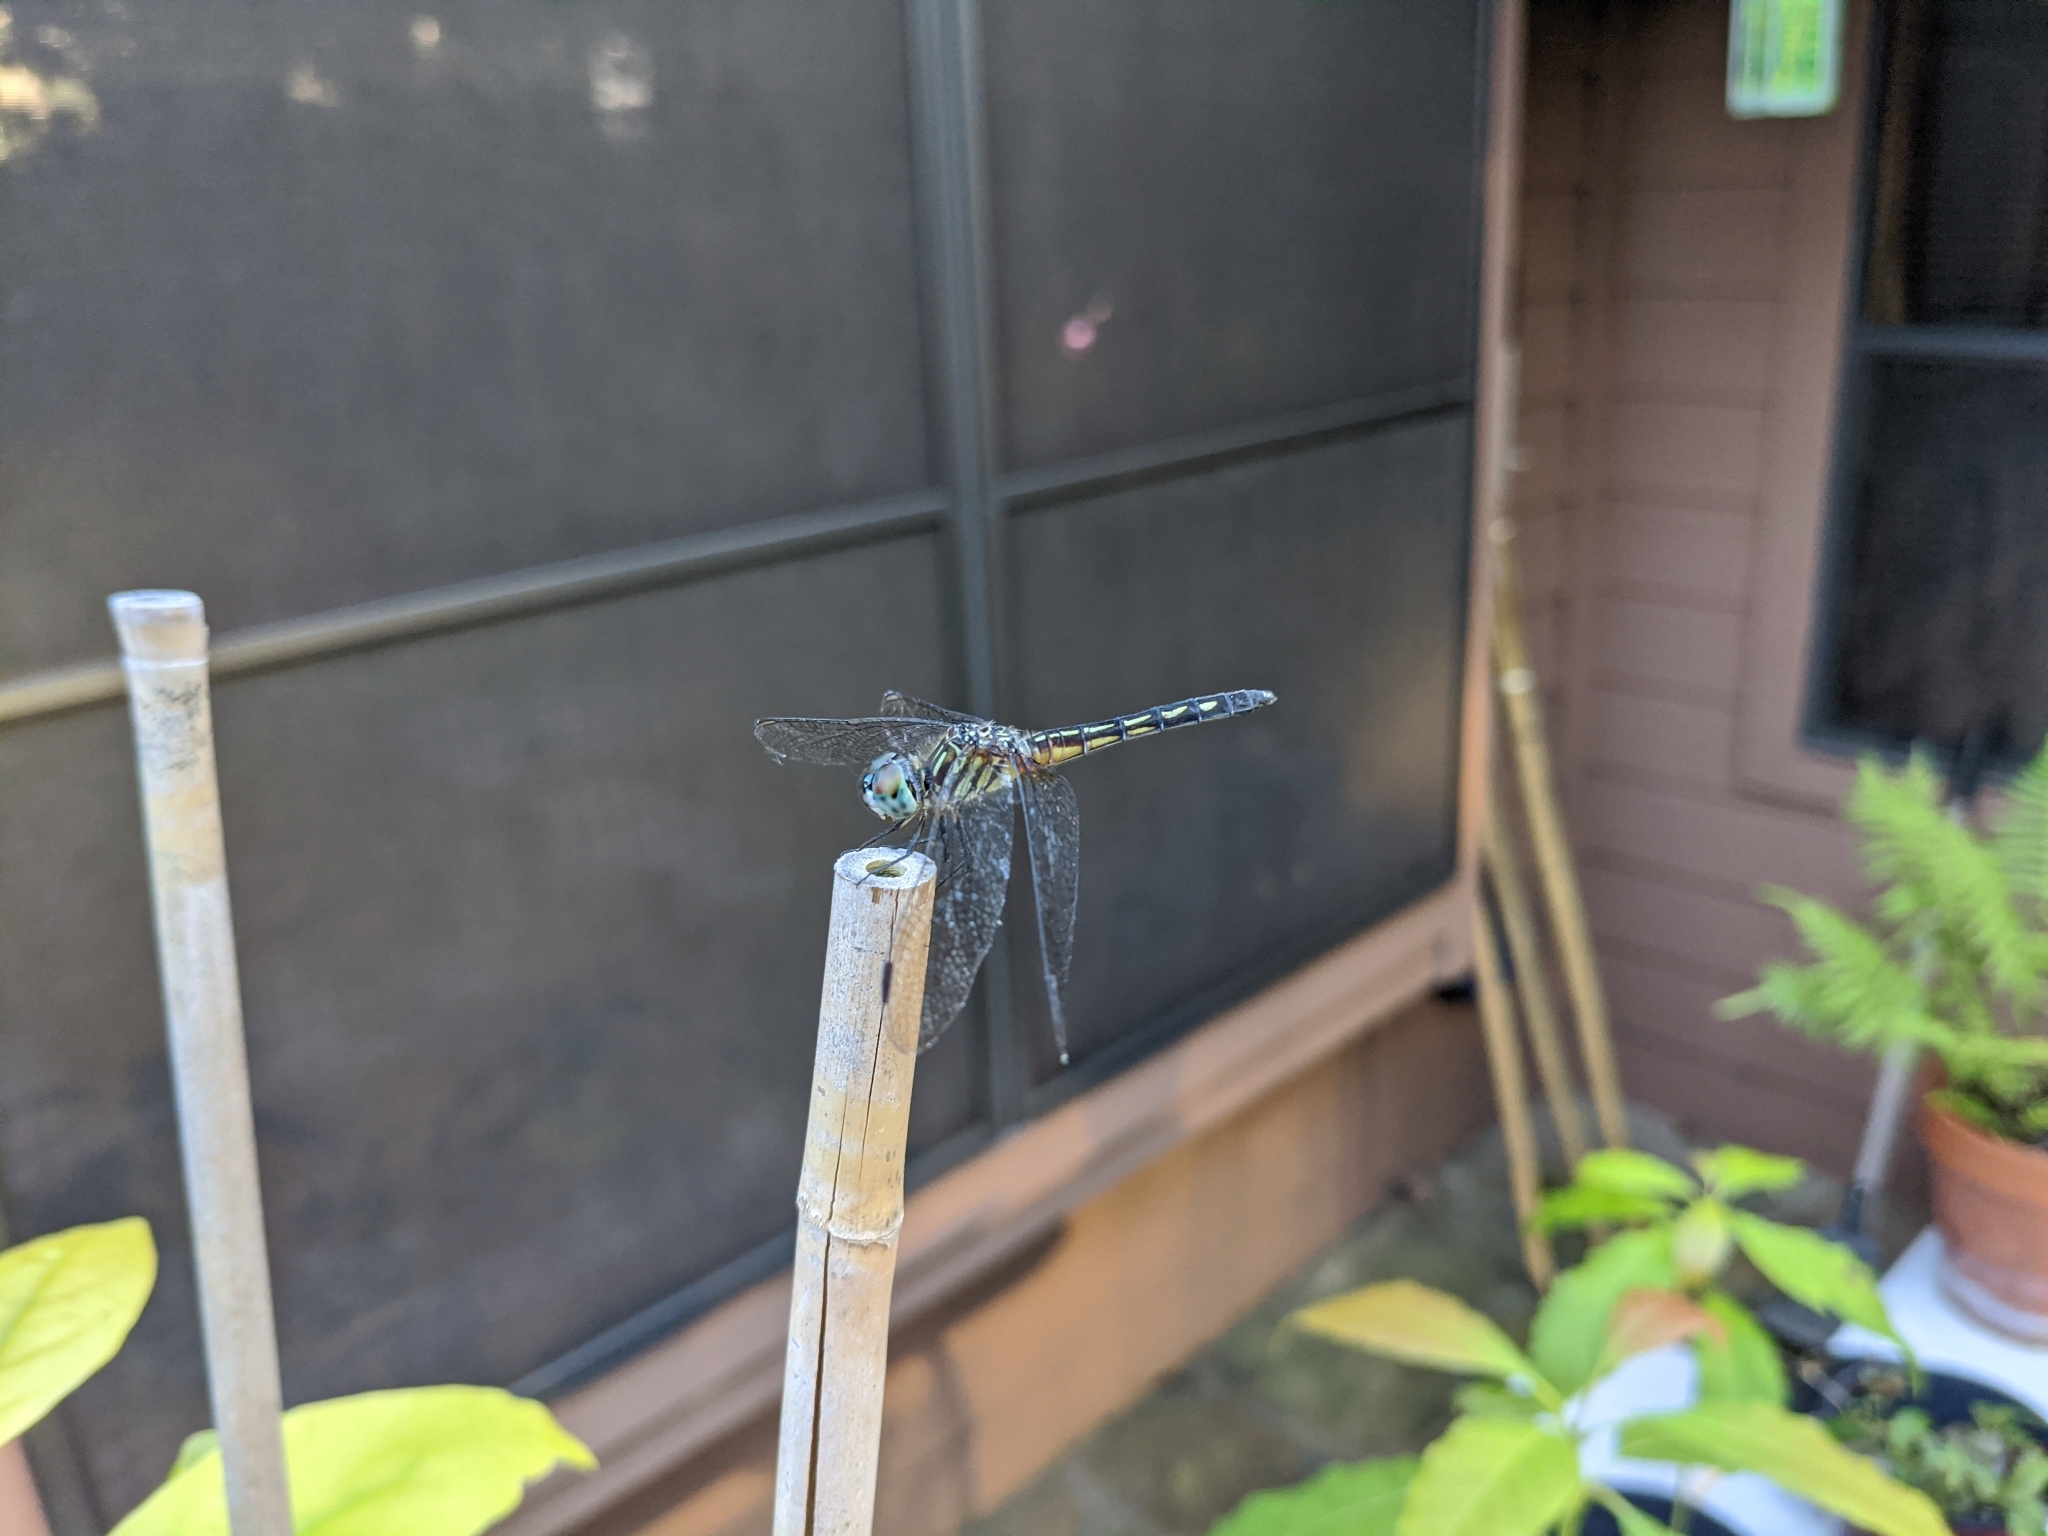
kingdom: Animalia
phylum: Arthropoda
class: Insecta
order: Odonata
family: Libellulidae
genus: Pachydiplax
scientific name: Pachydiplax longipennis
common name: Blue dasher
